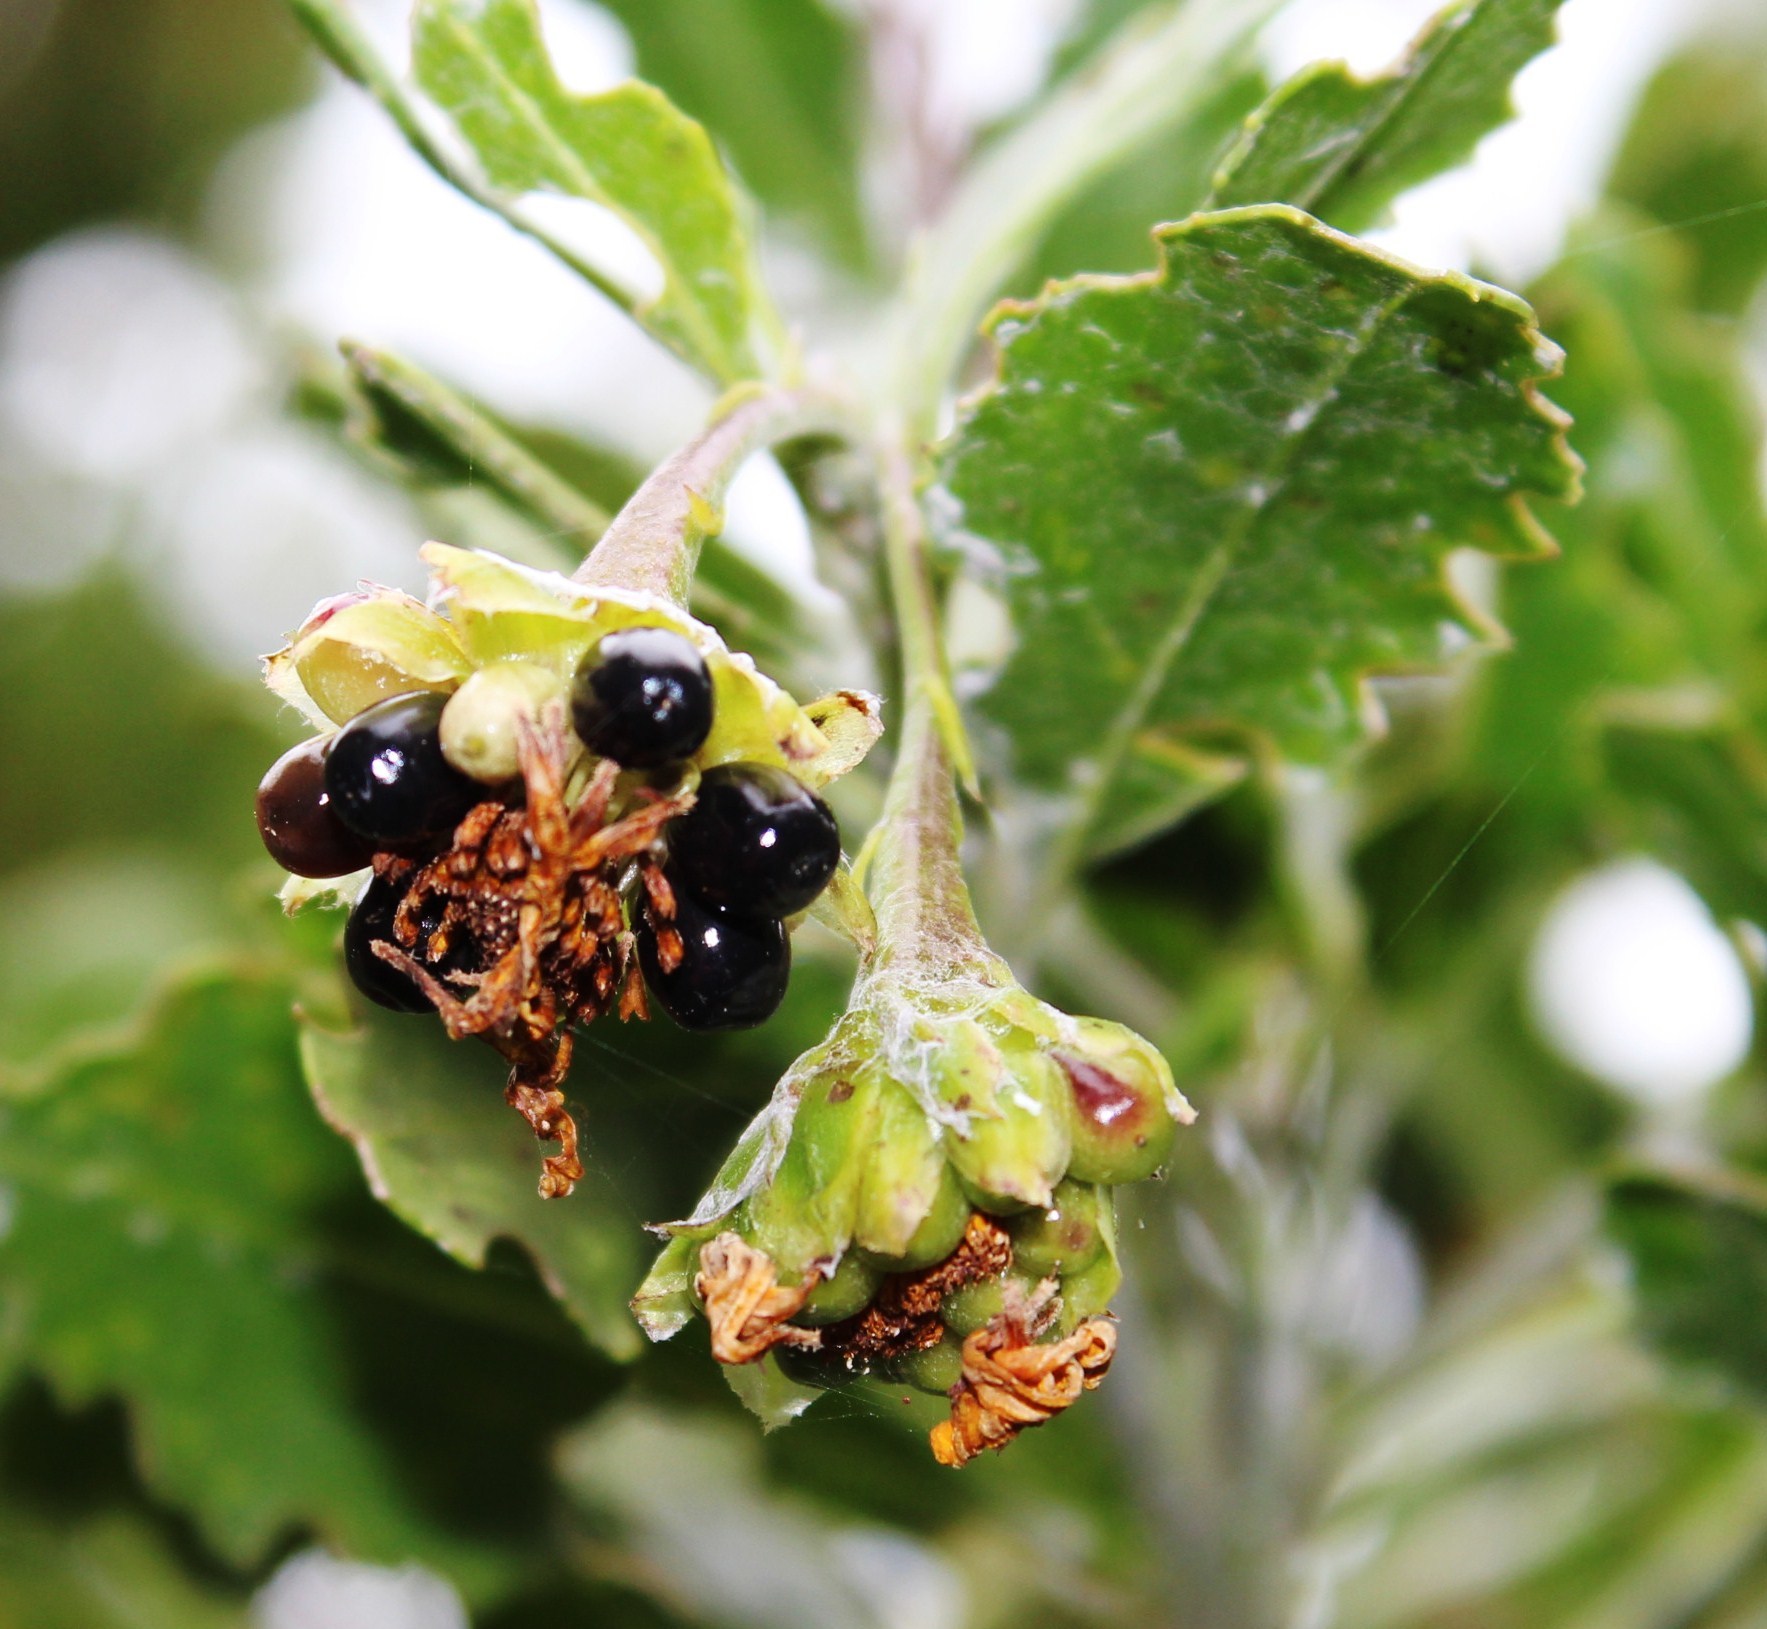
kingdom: Plantae
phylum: Tracheophyta
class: Magnoliopsida
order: Asterales
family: Asteraceae
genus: Osteospermum
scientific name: Osteospermum moniliferum
